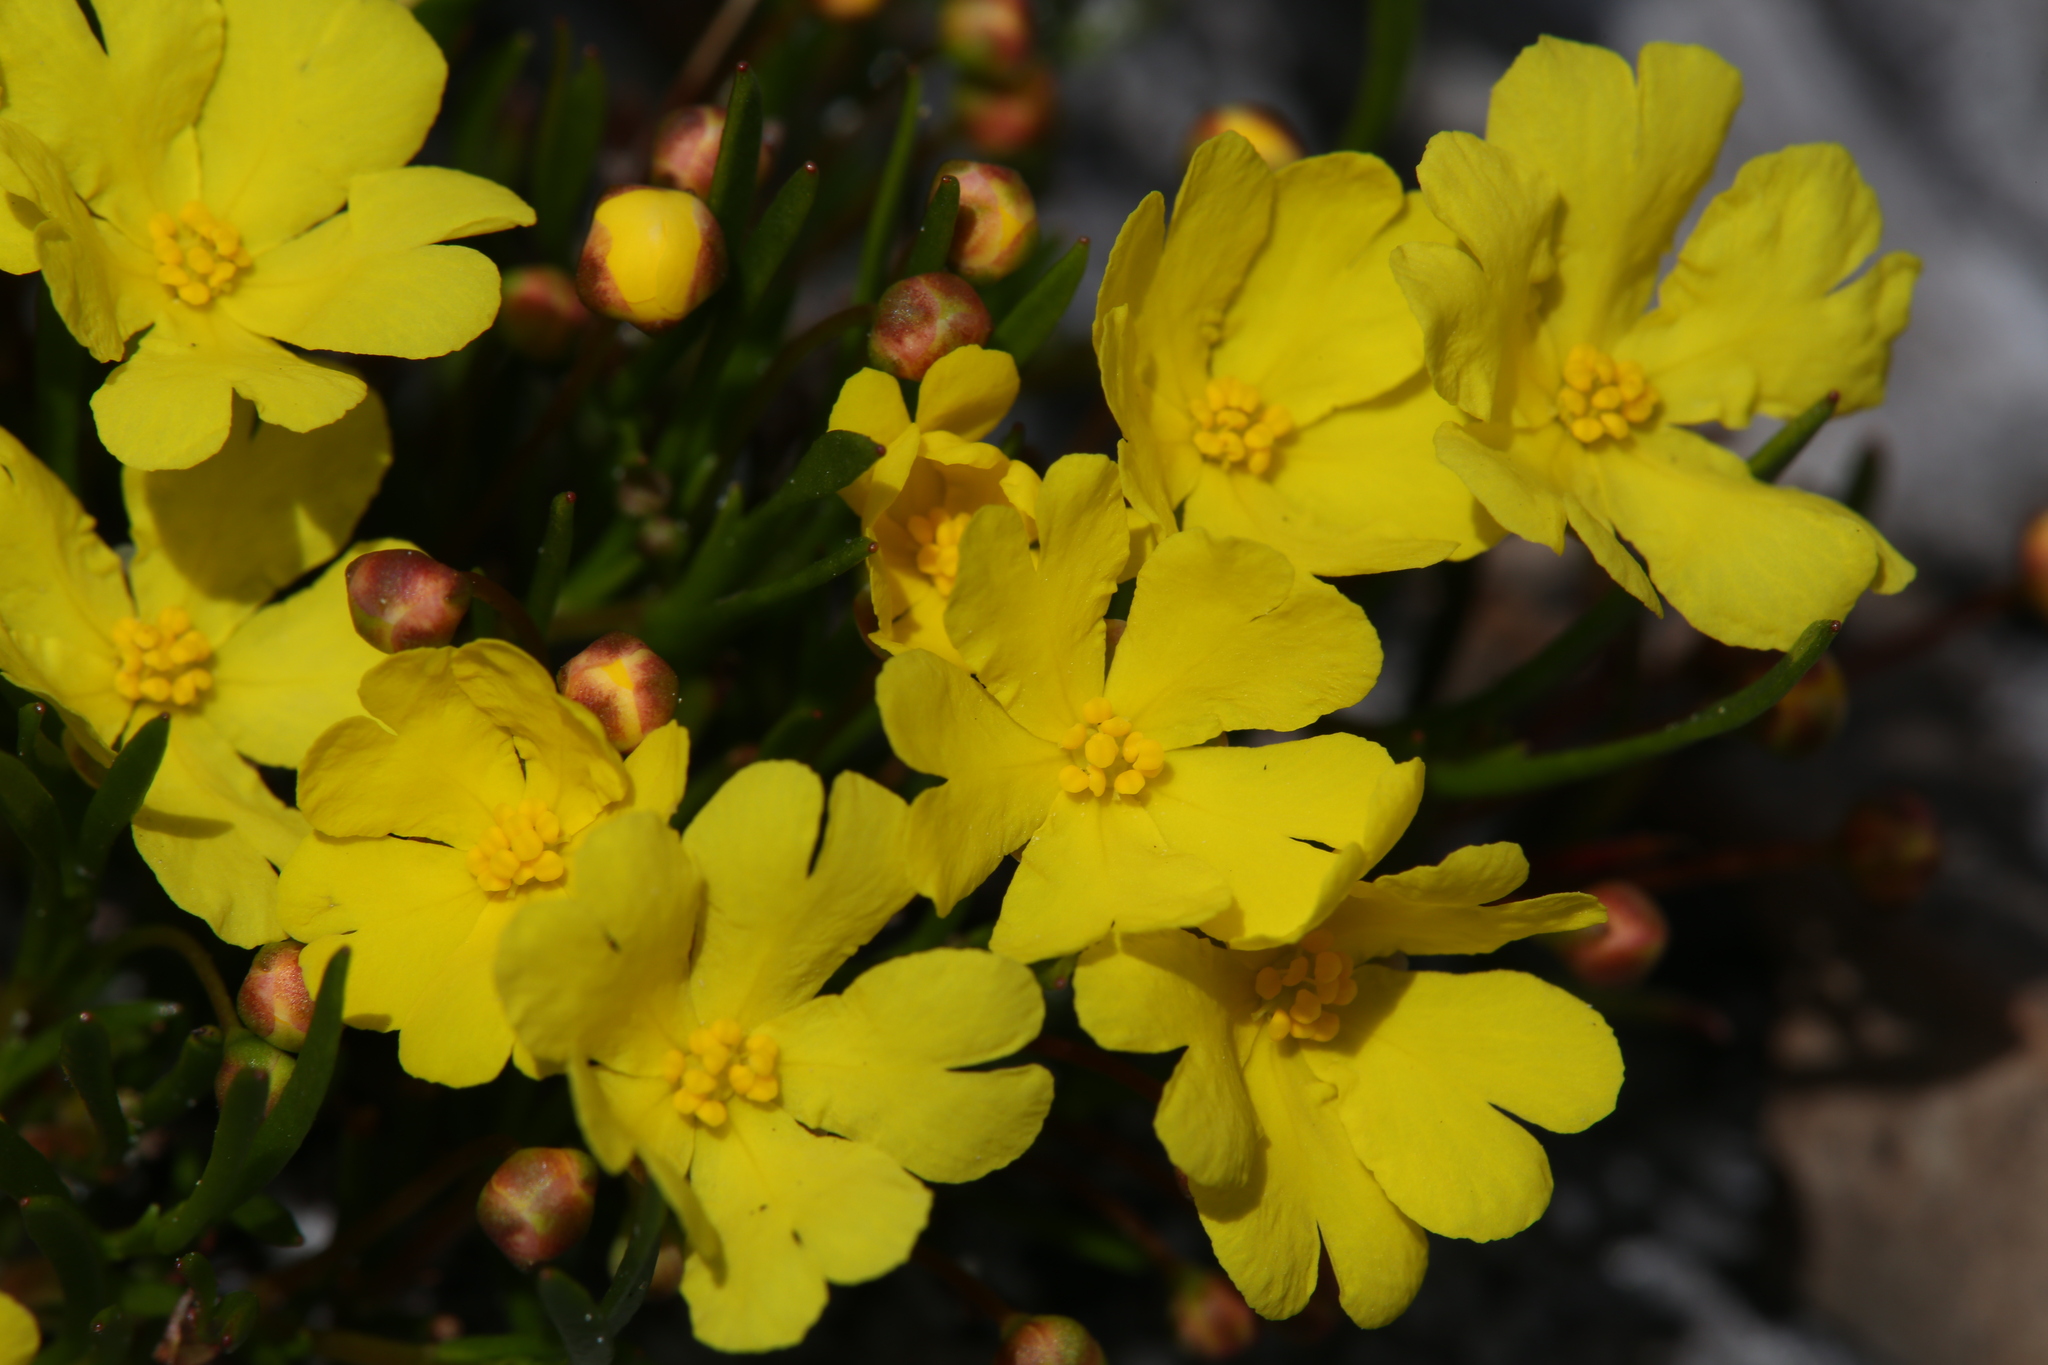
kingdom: Plantae
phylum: Tracheophyta
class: Magnoliopsida
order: Dilleniales
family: Dilleniaceae
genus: Hibbertia
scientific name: Hibbertia stellaris
